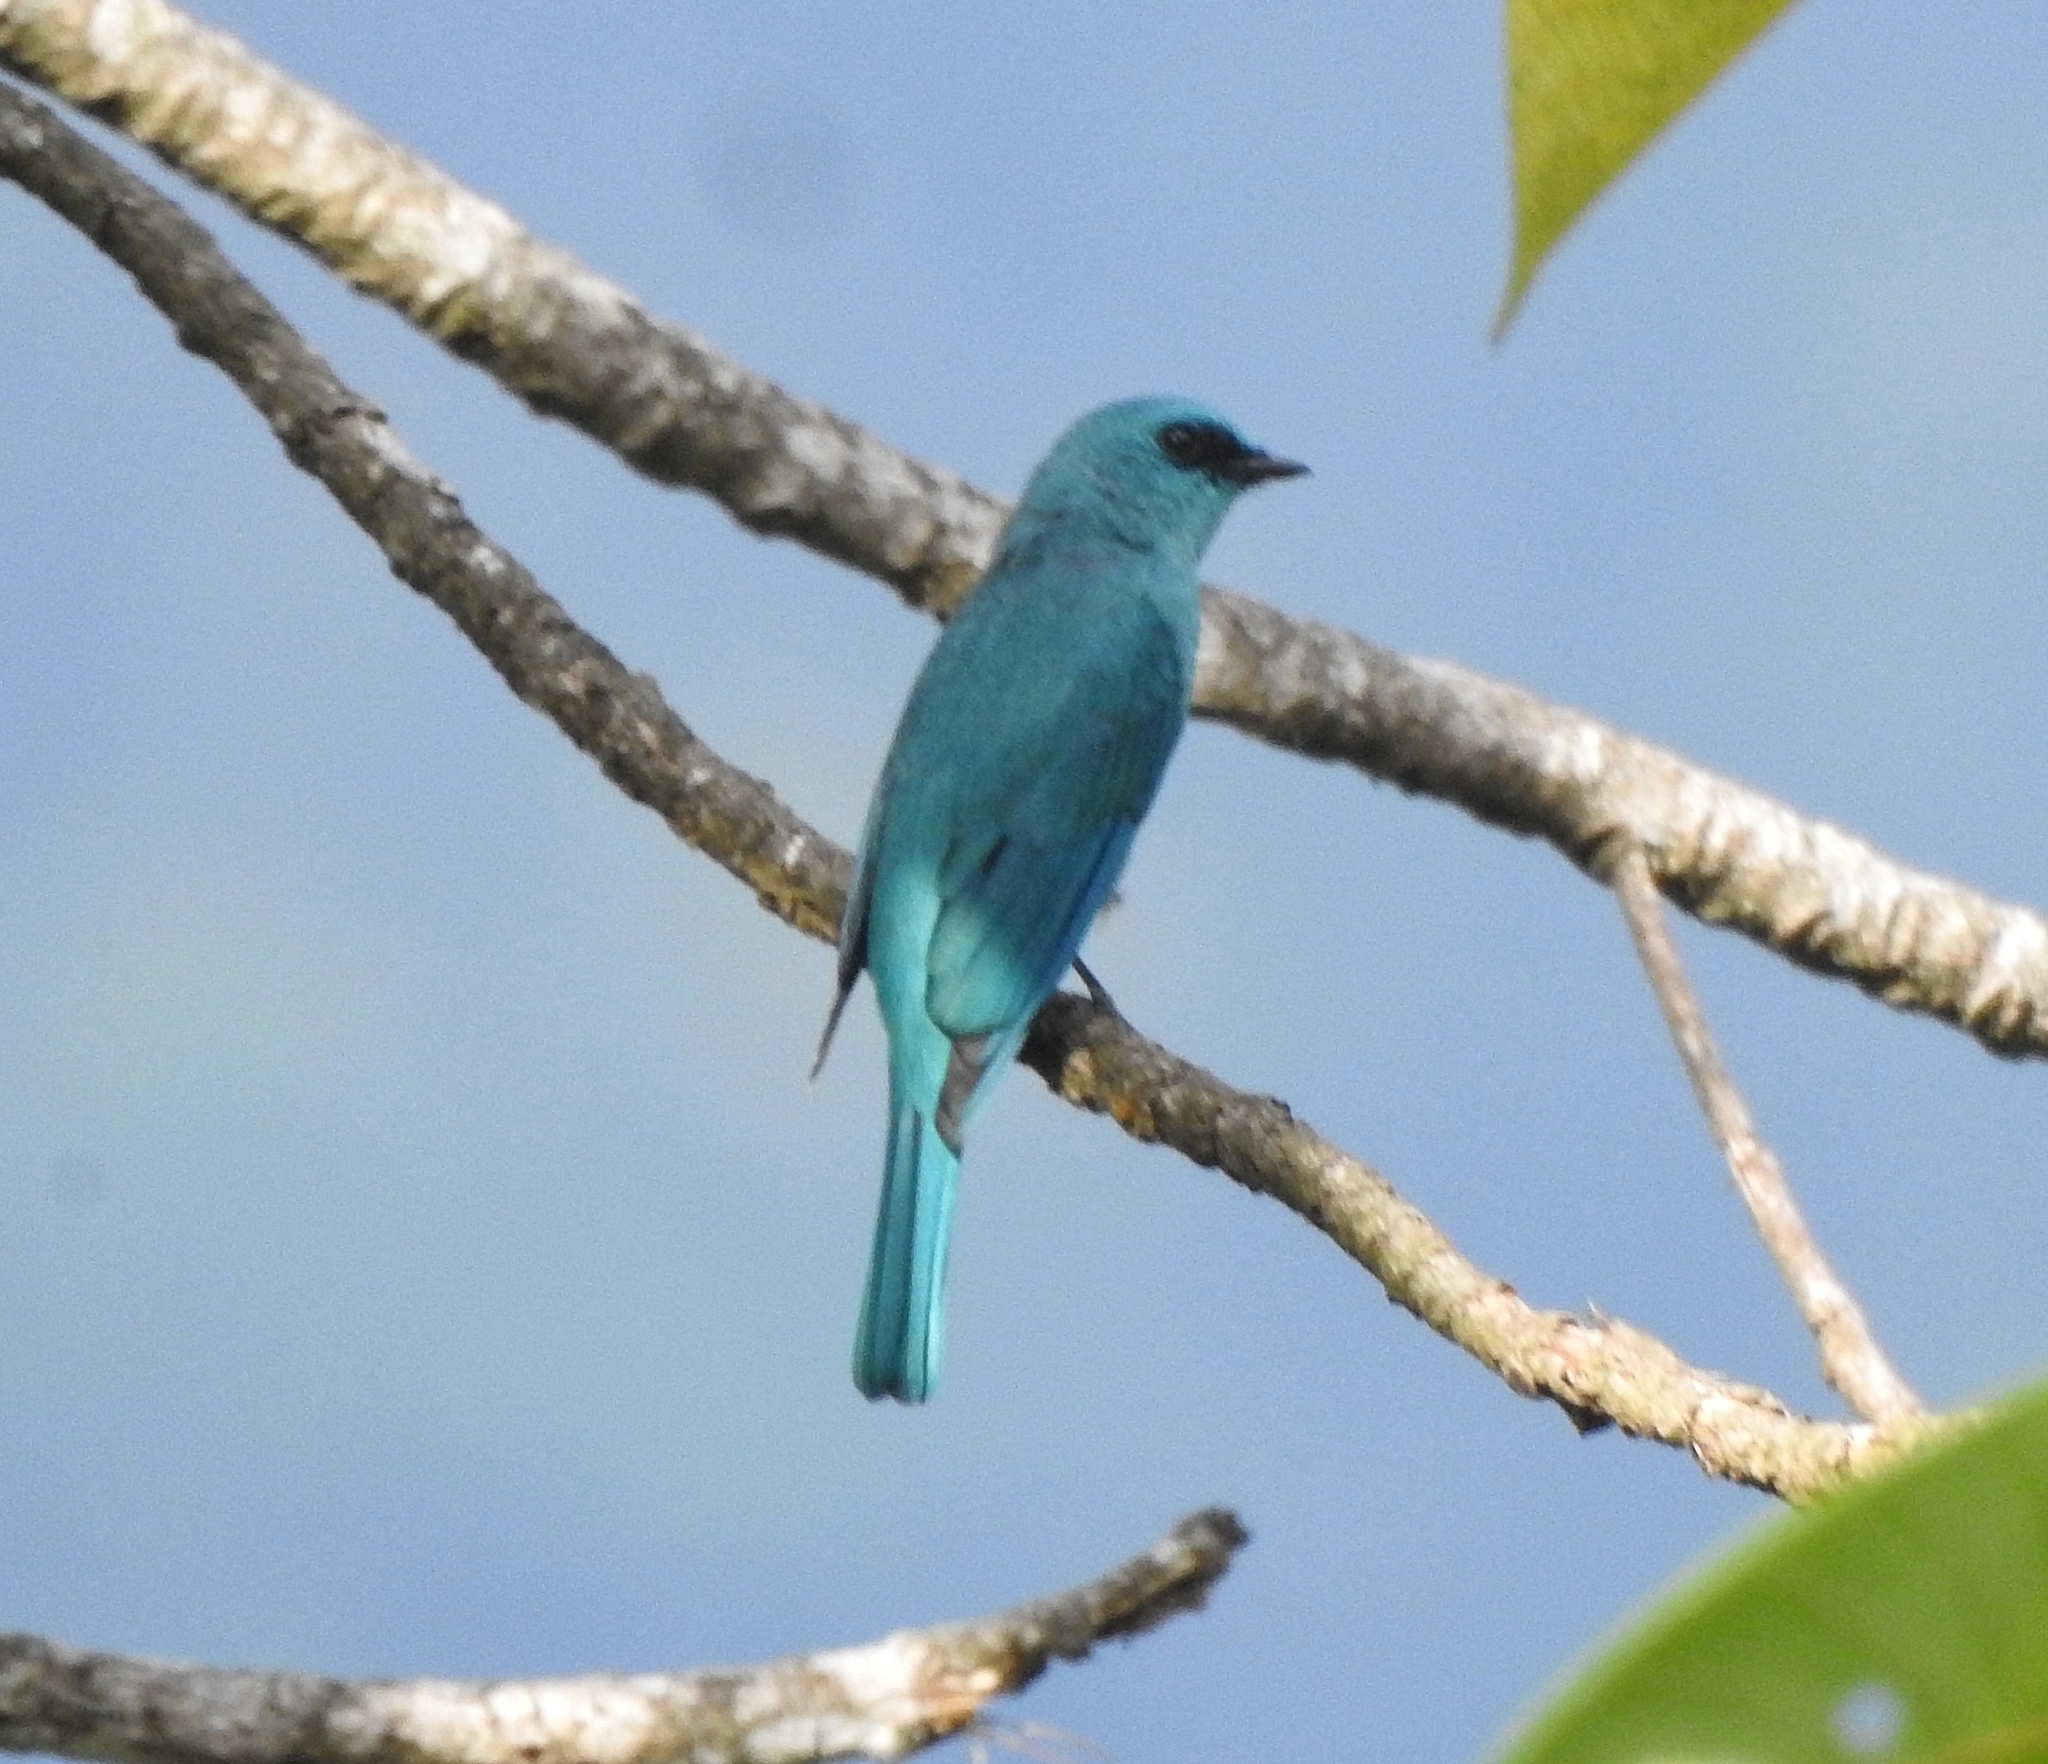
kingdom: Animalia
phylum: Chordata
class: Aves
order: Passeriformes
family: Muscicapidae
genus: Eumyias
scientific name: Eumyias thalassinus
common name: Verditer flycatcher
